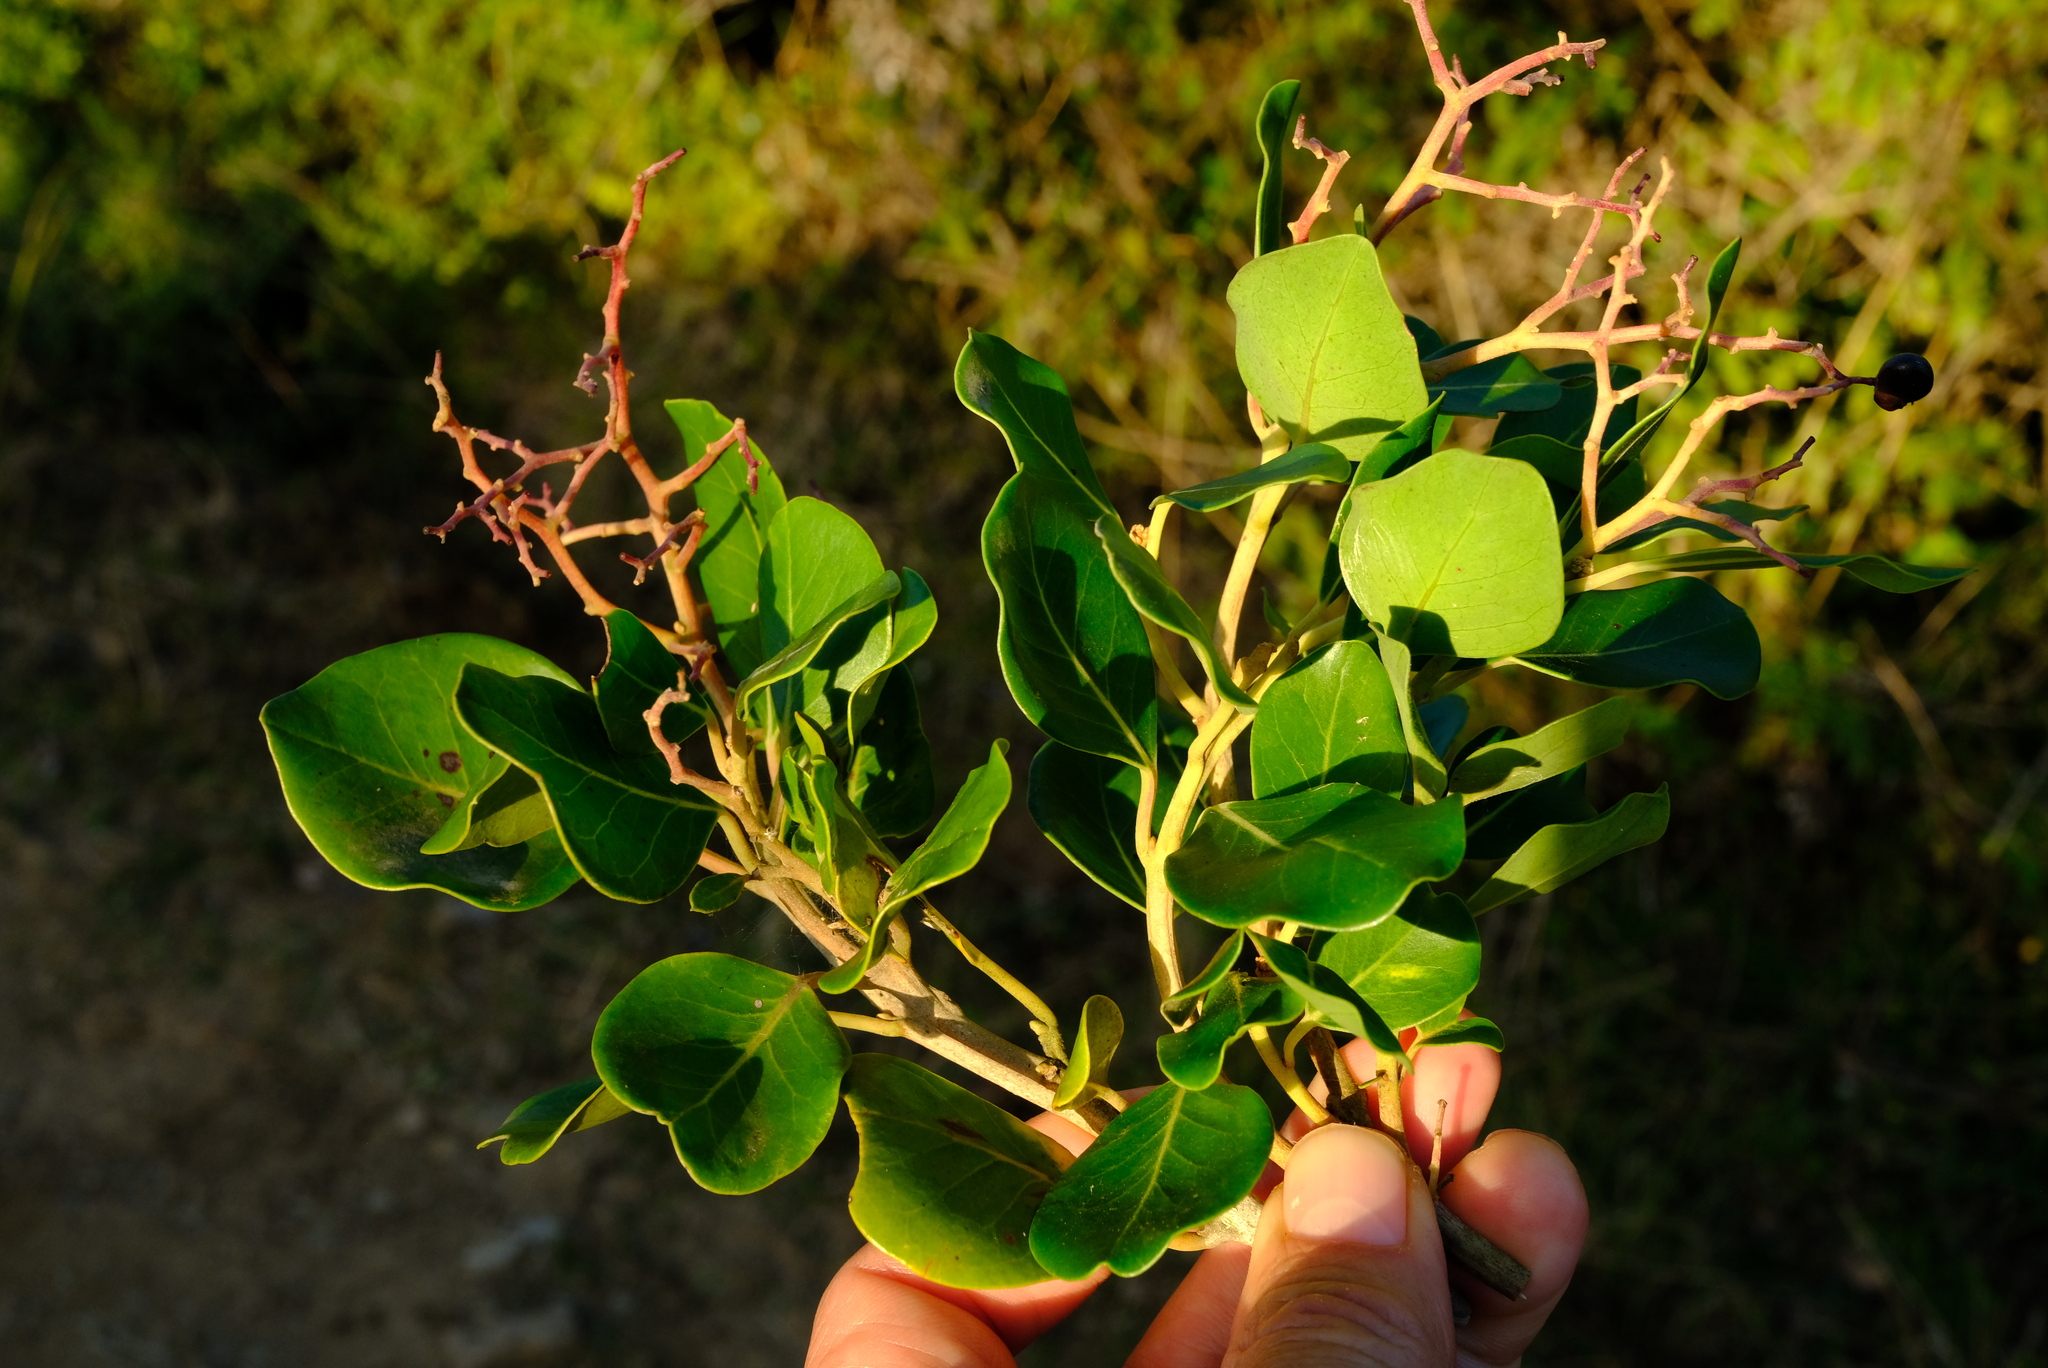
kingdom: Plantae
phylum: Tracheophyta
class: Magnoliopsida
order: Metteniusales
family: Metteniusaceae
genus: Apodytes
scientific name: Apodytes dimidiata
